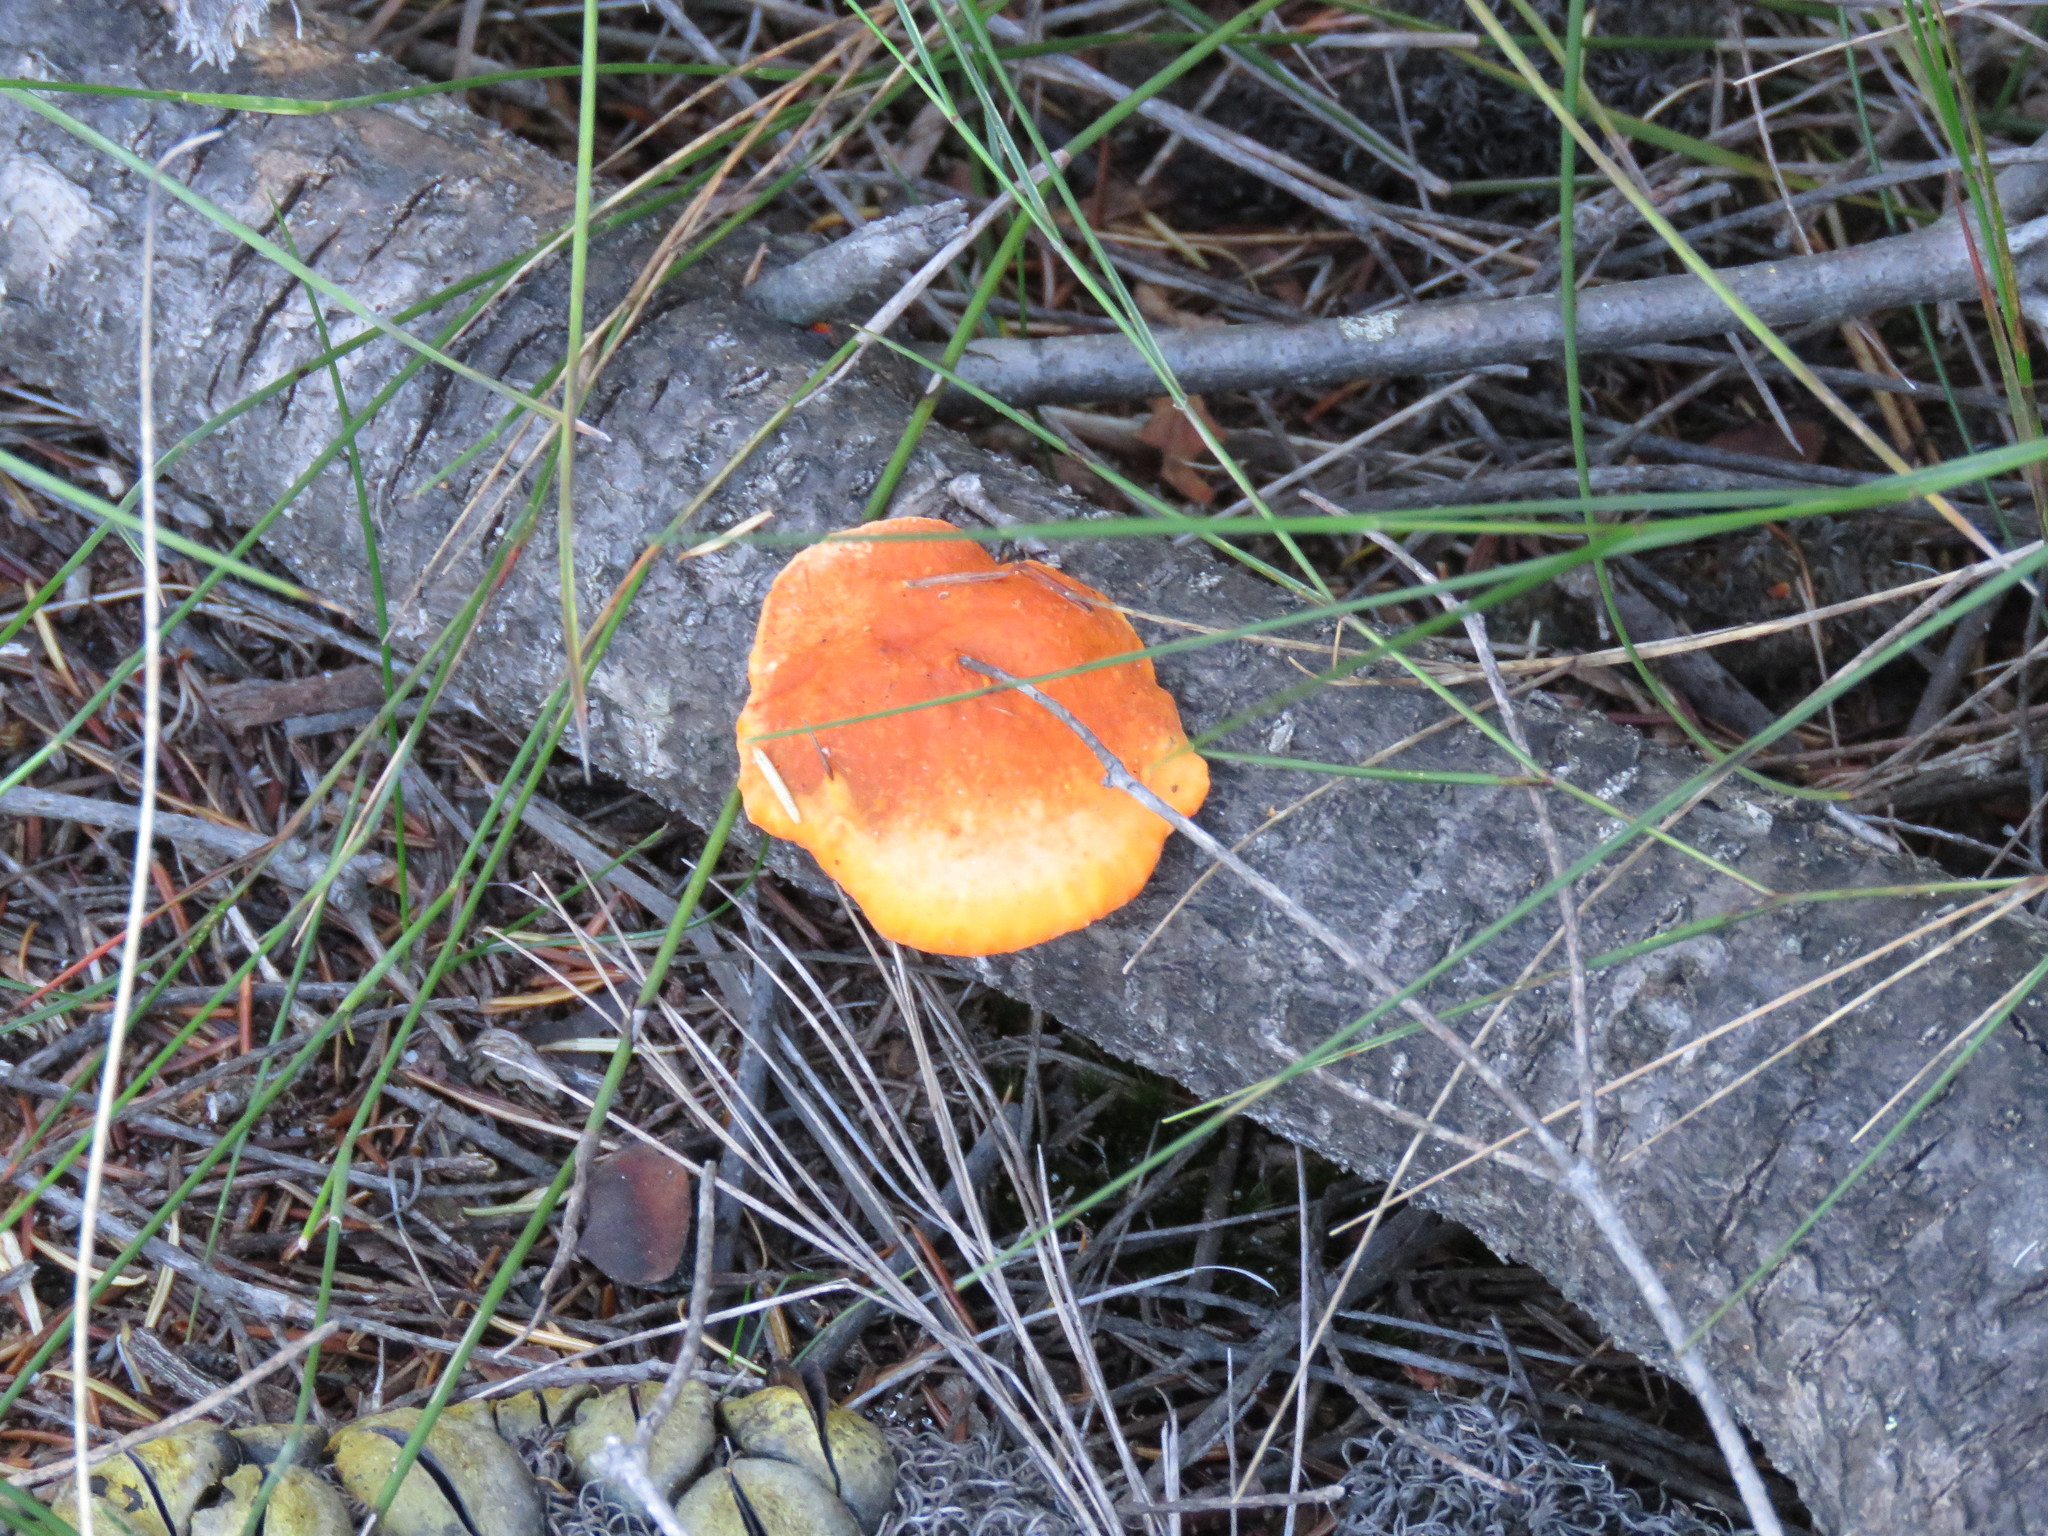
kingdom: Fungi
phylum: Basidiomycota
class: Agaricomycetes
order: Polyporales
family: Polyporaceae
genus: Trametes
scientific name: Trametes coccinea
